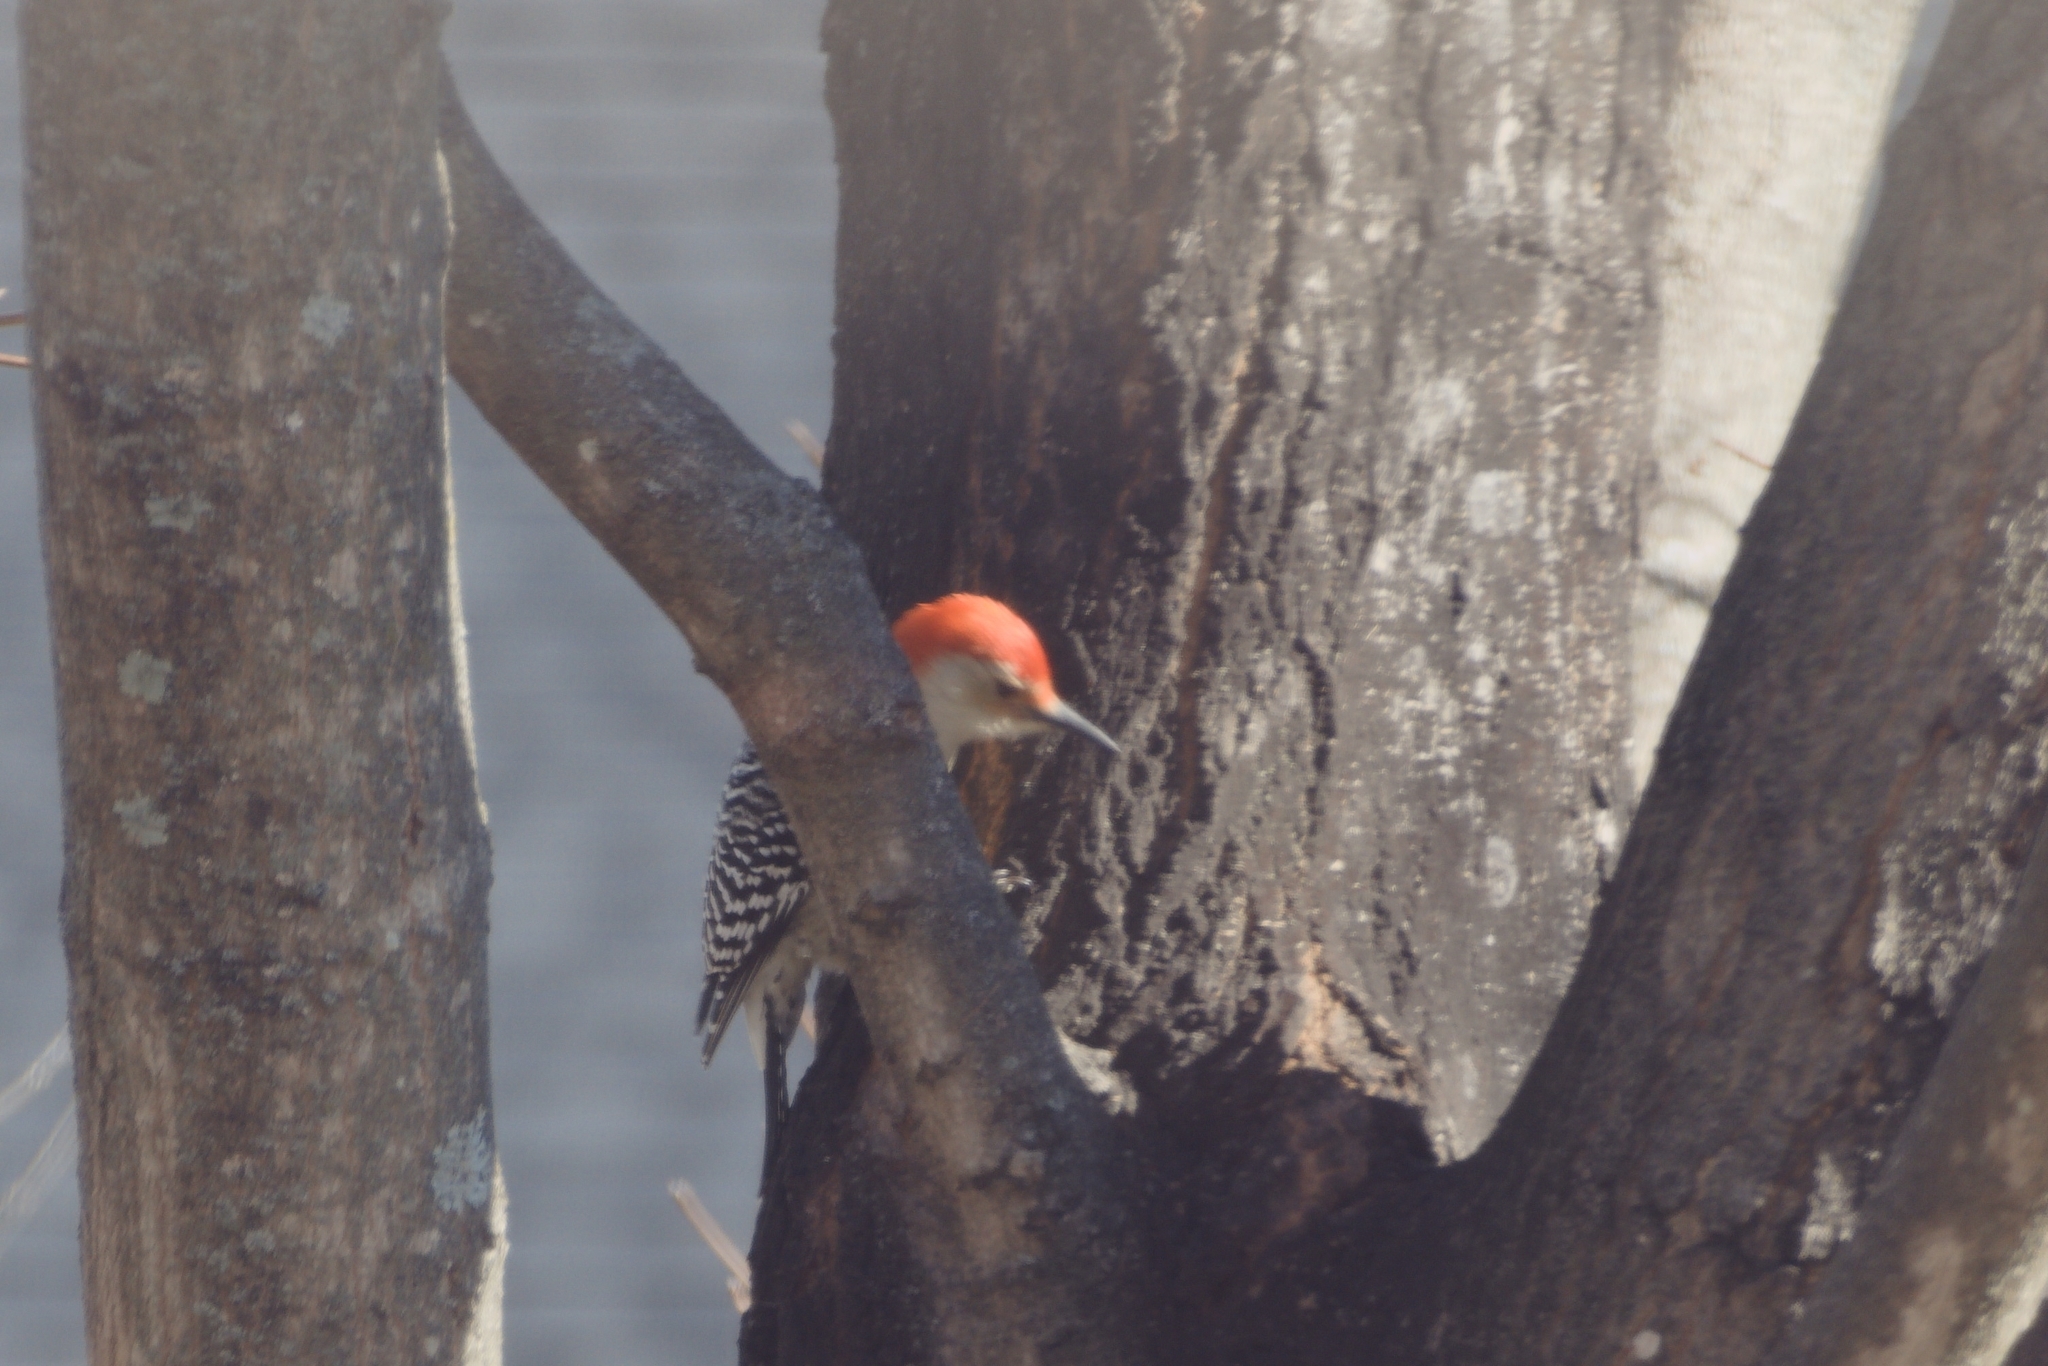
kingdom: Animalia
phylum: Chordata
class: Aves
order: Piciformes
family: Picidae
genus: Melanerpes
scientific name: Melanerpes carolinus
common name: Red-bellied woodpecker
